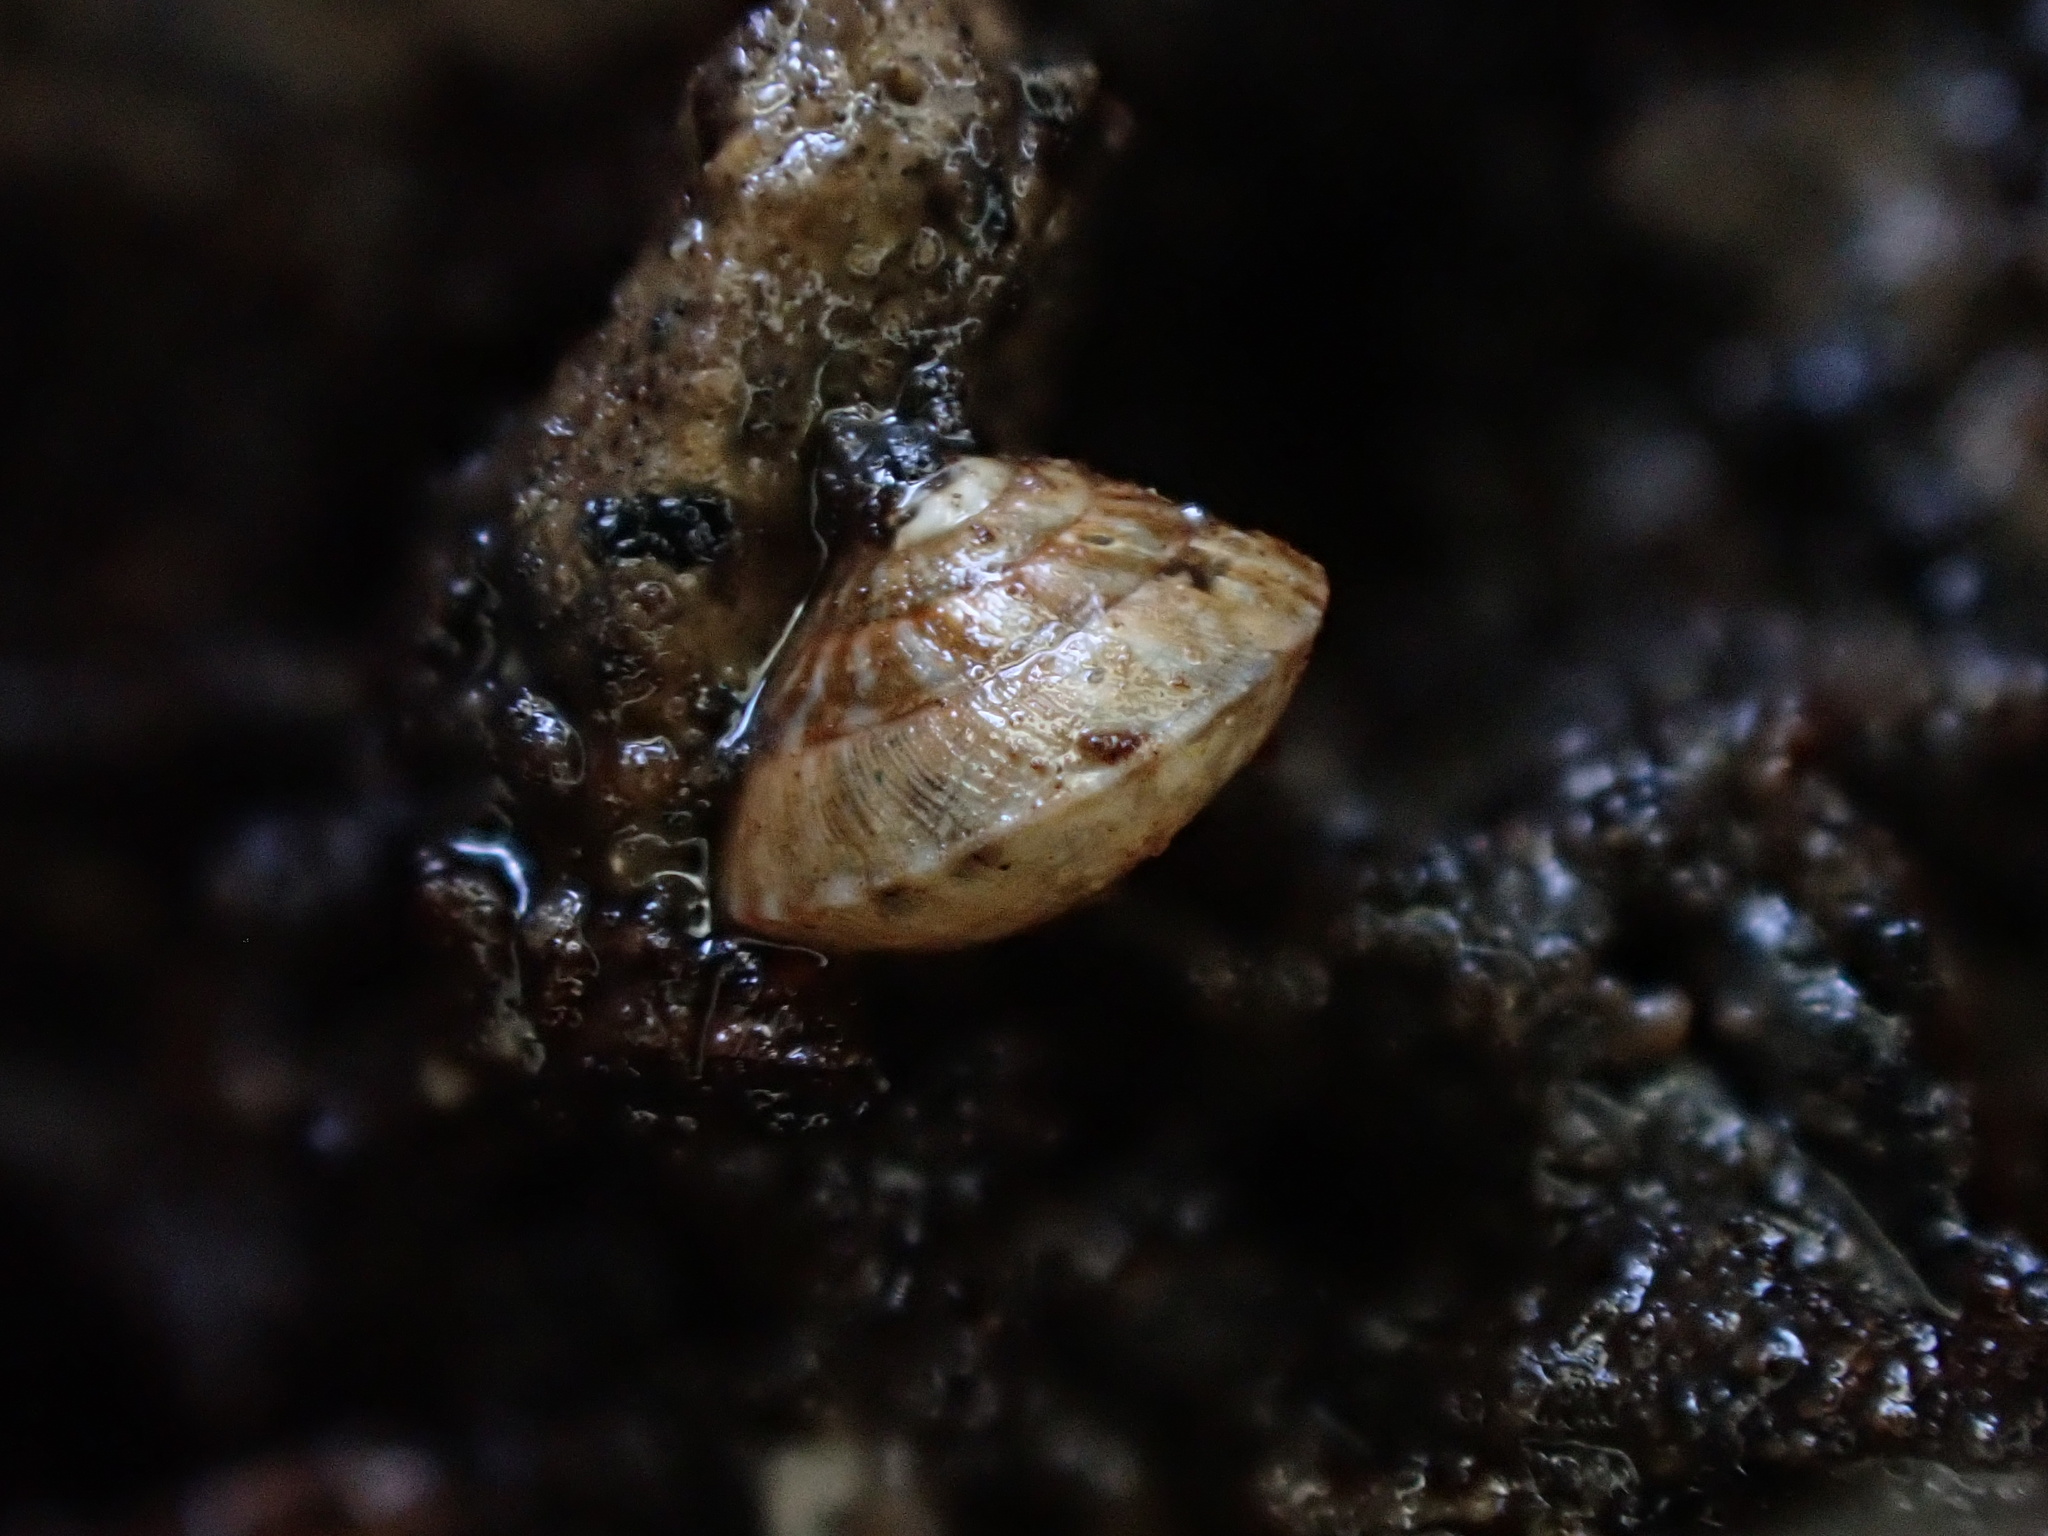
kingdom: Animalia
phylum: Mollusca
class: Gastropoda
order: Stylommatophora
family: Punctidae
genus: Laoma
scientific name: Laoma nerissa
